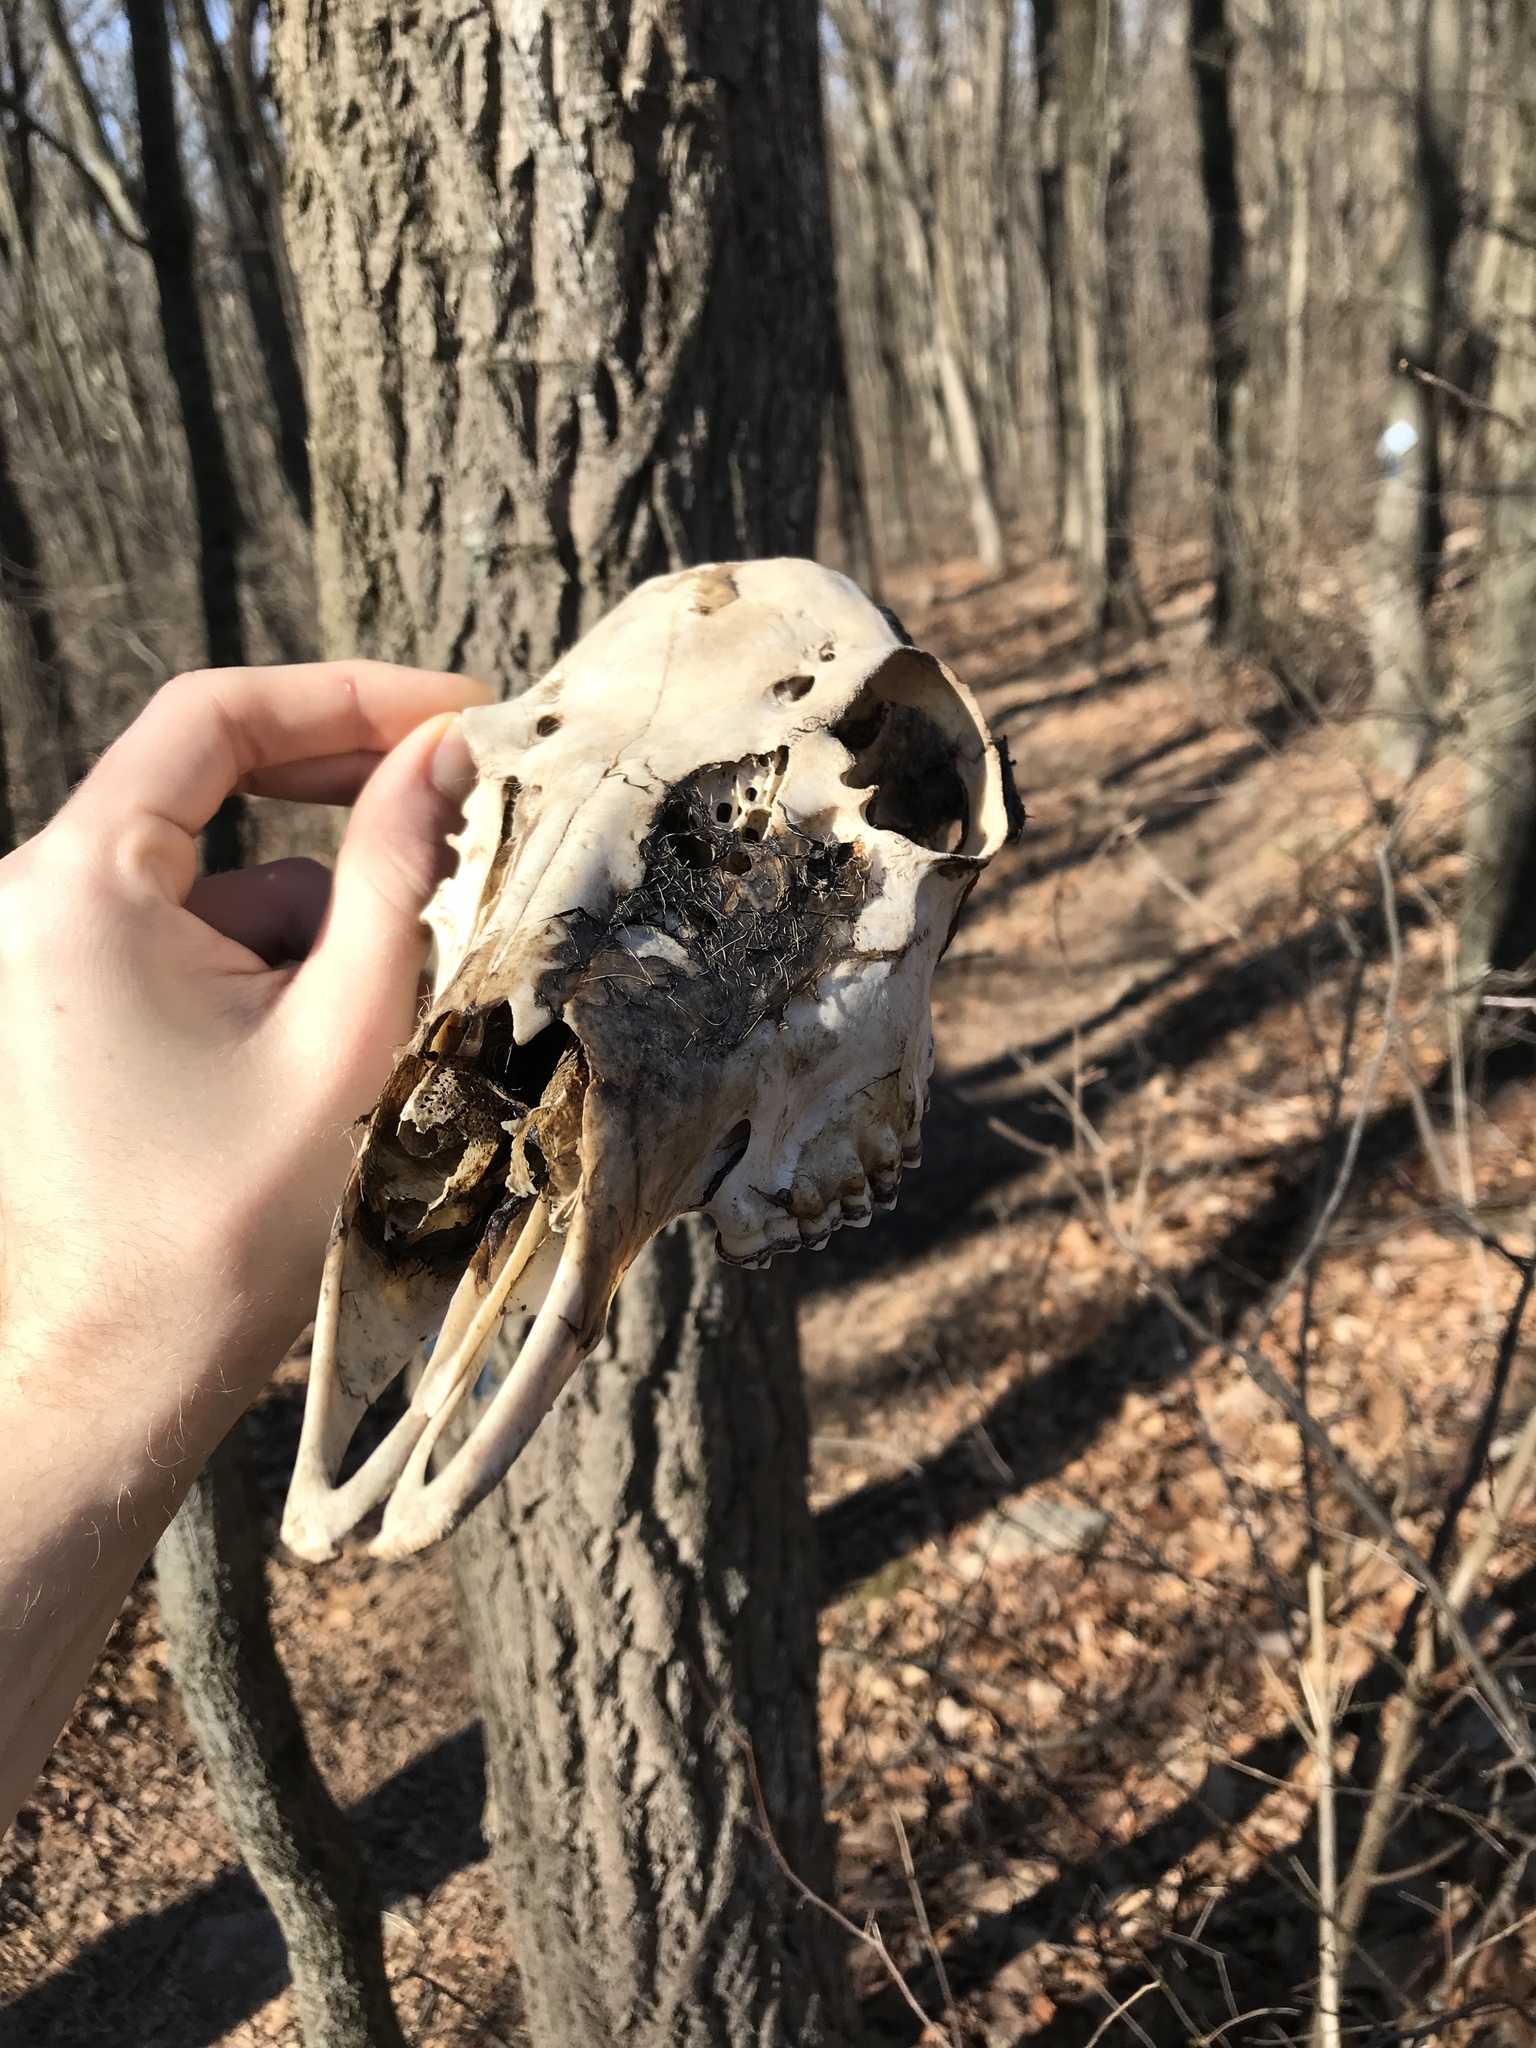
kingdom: Animalia
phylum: Chordata
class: Mammalia
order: Artiodactyla
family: Cervidae
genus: Odocoileus
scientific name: Odocoileus virginianus
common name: White-tailed deer
